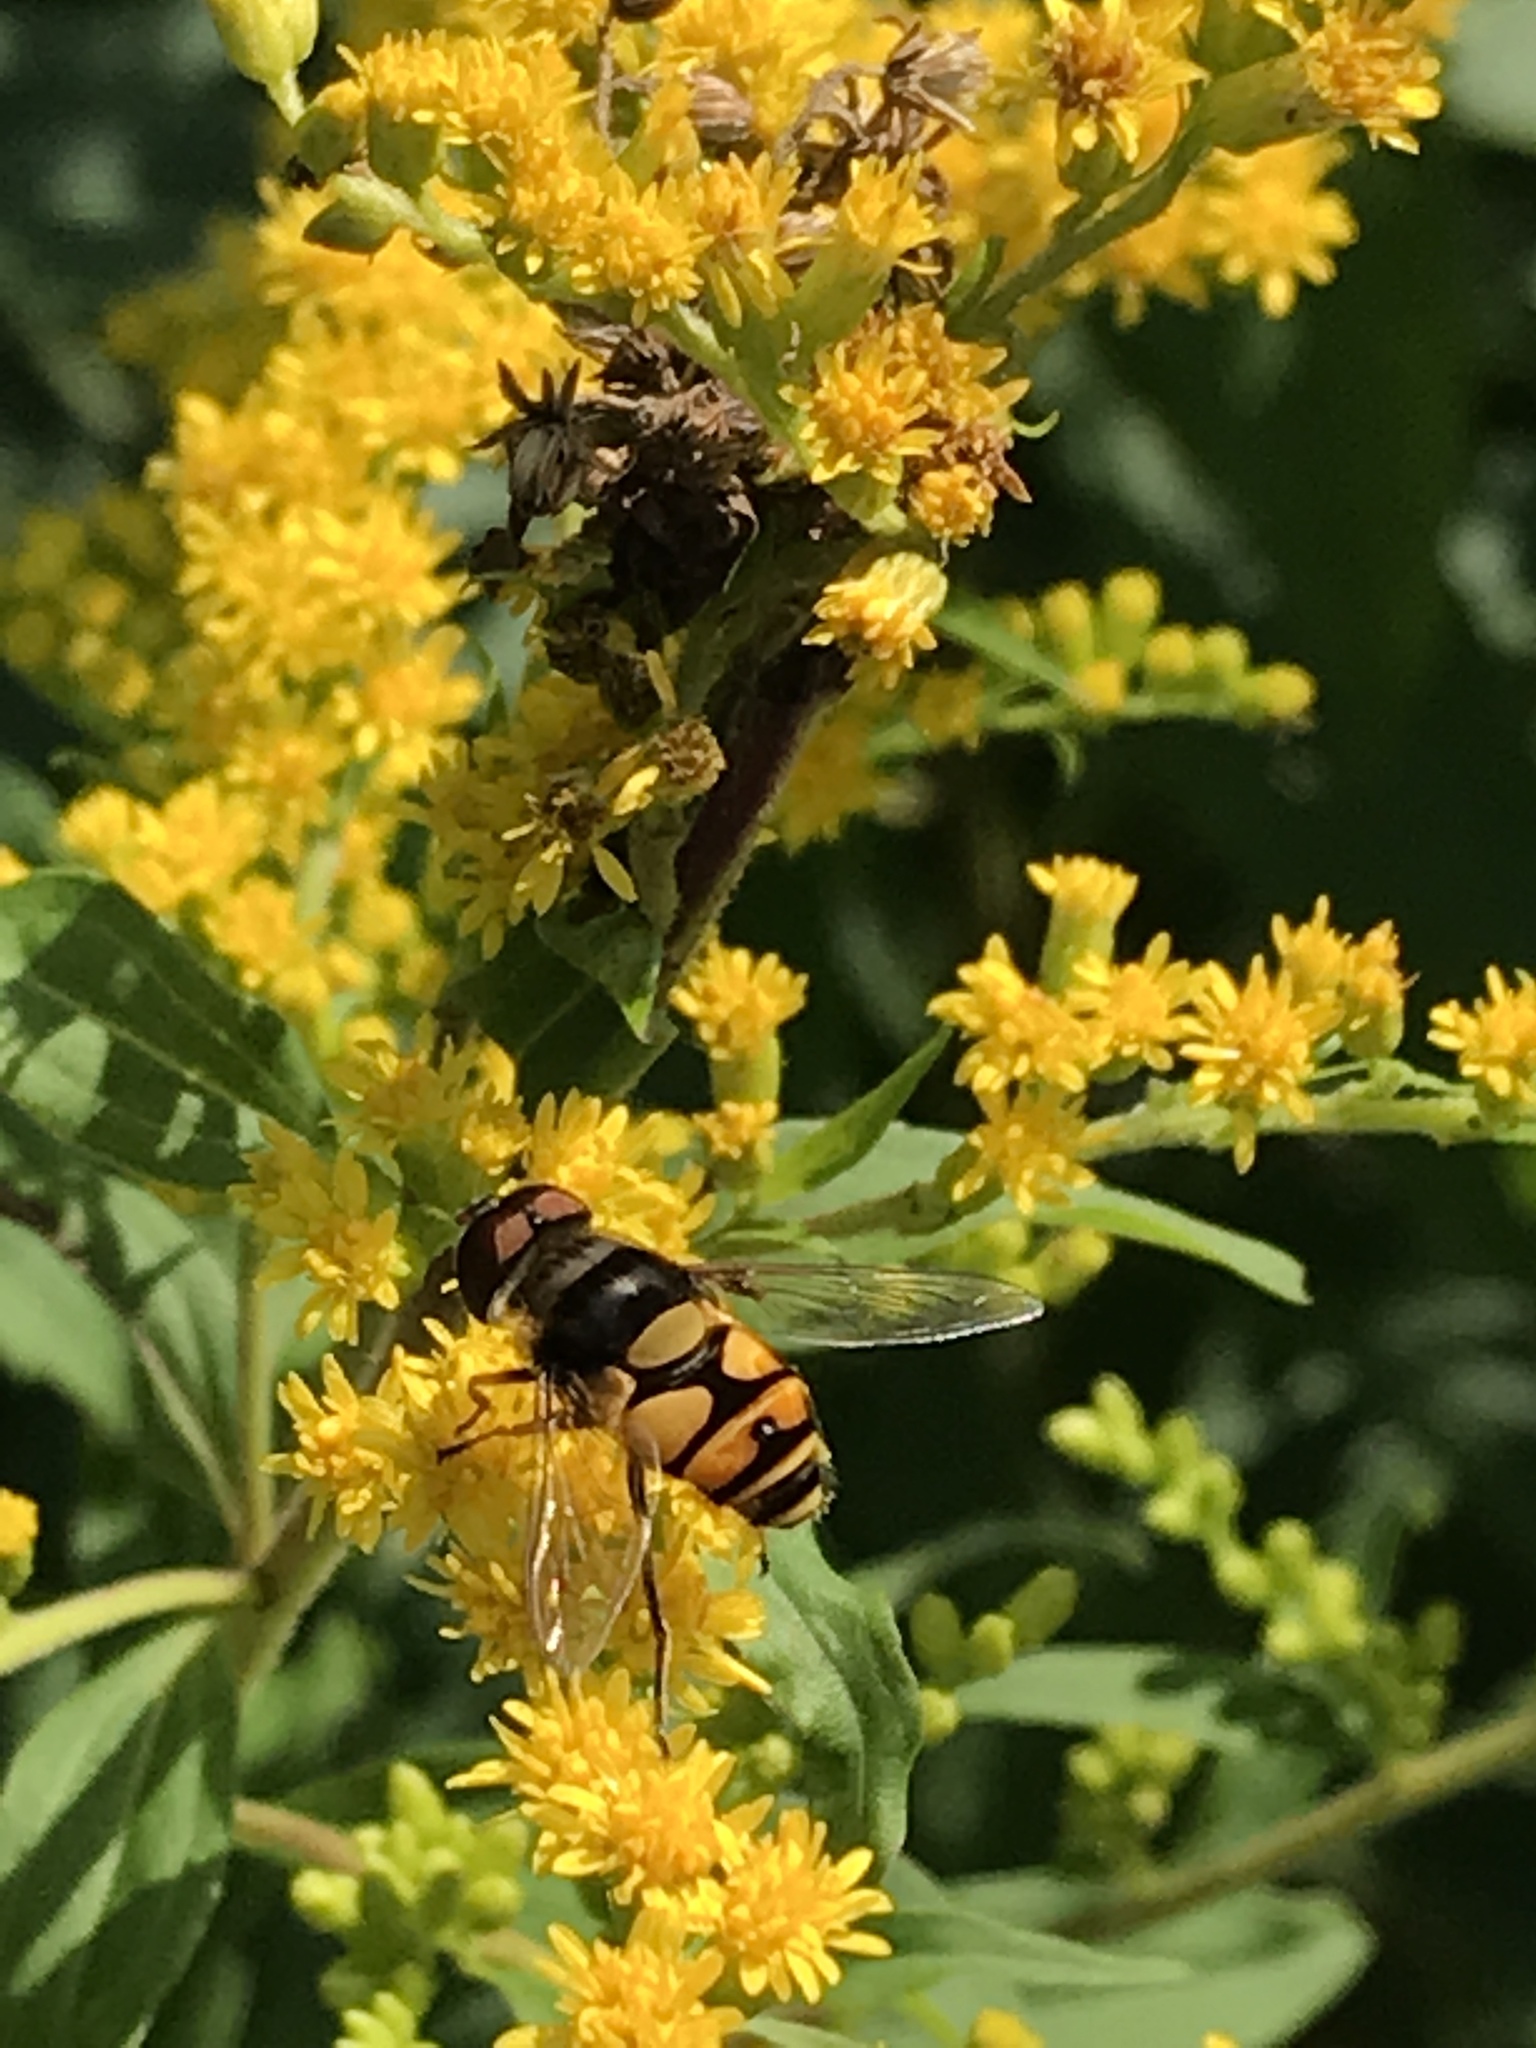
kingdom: Animalia
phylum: Arthropoda
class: Insecta
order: Diptera
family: Syrphidae
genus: Eristalis
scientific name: Eristalis transversa
